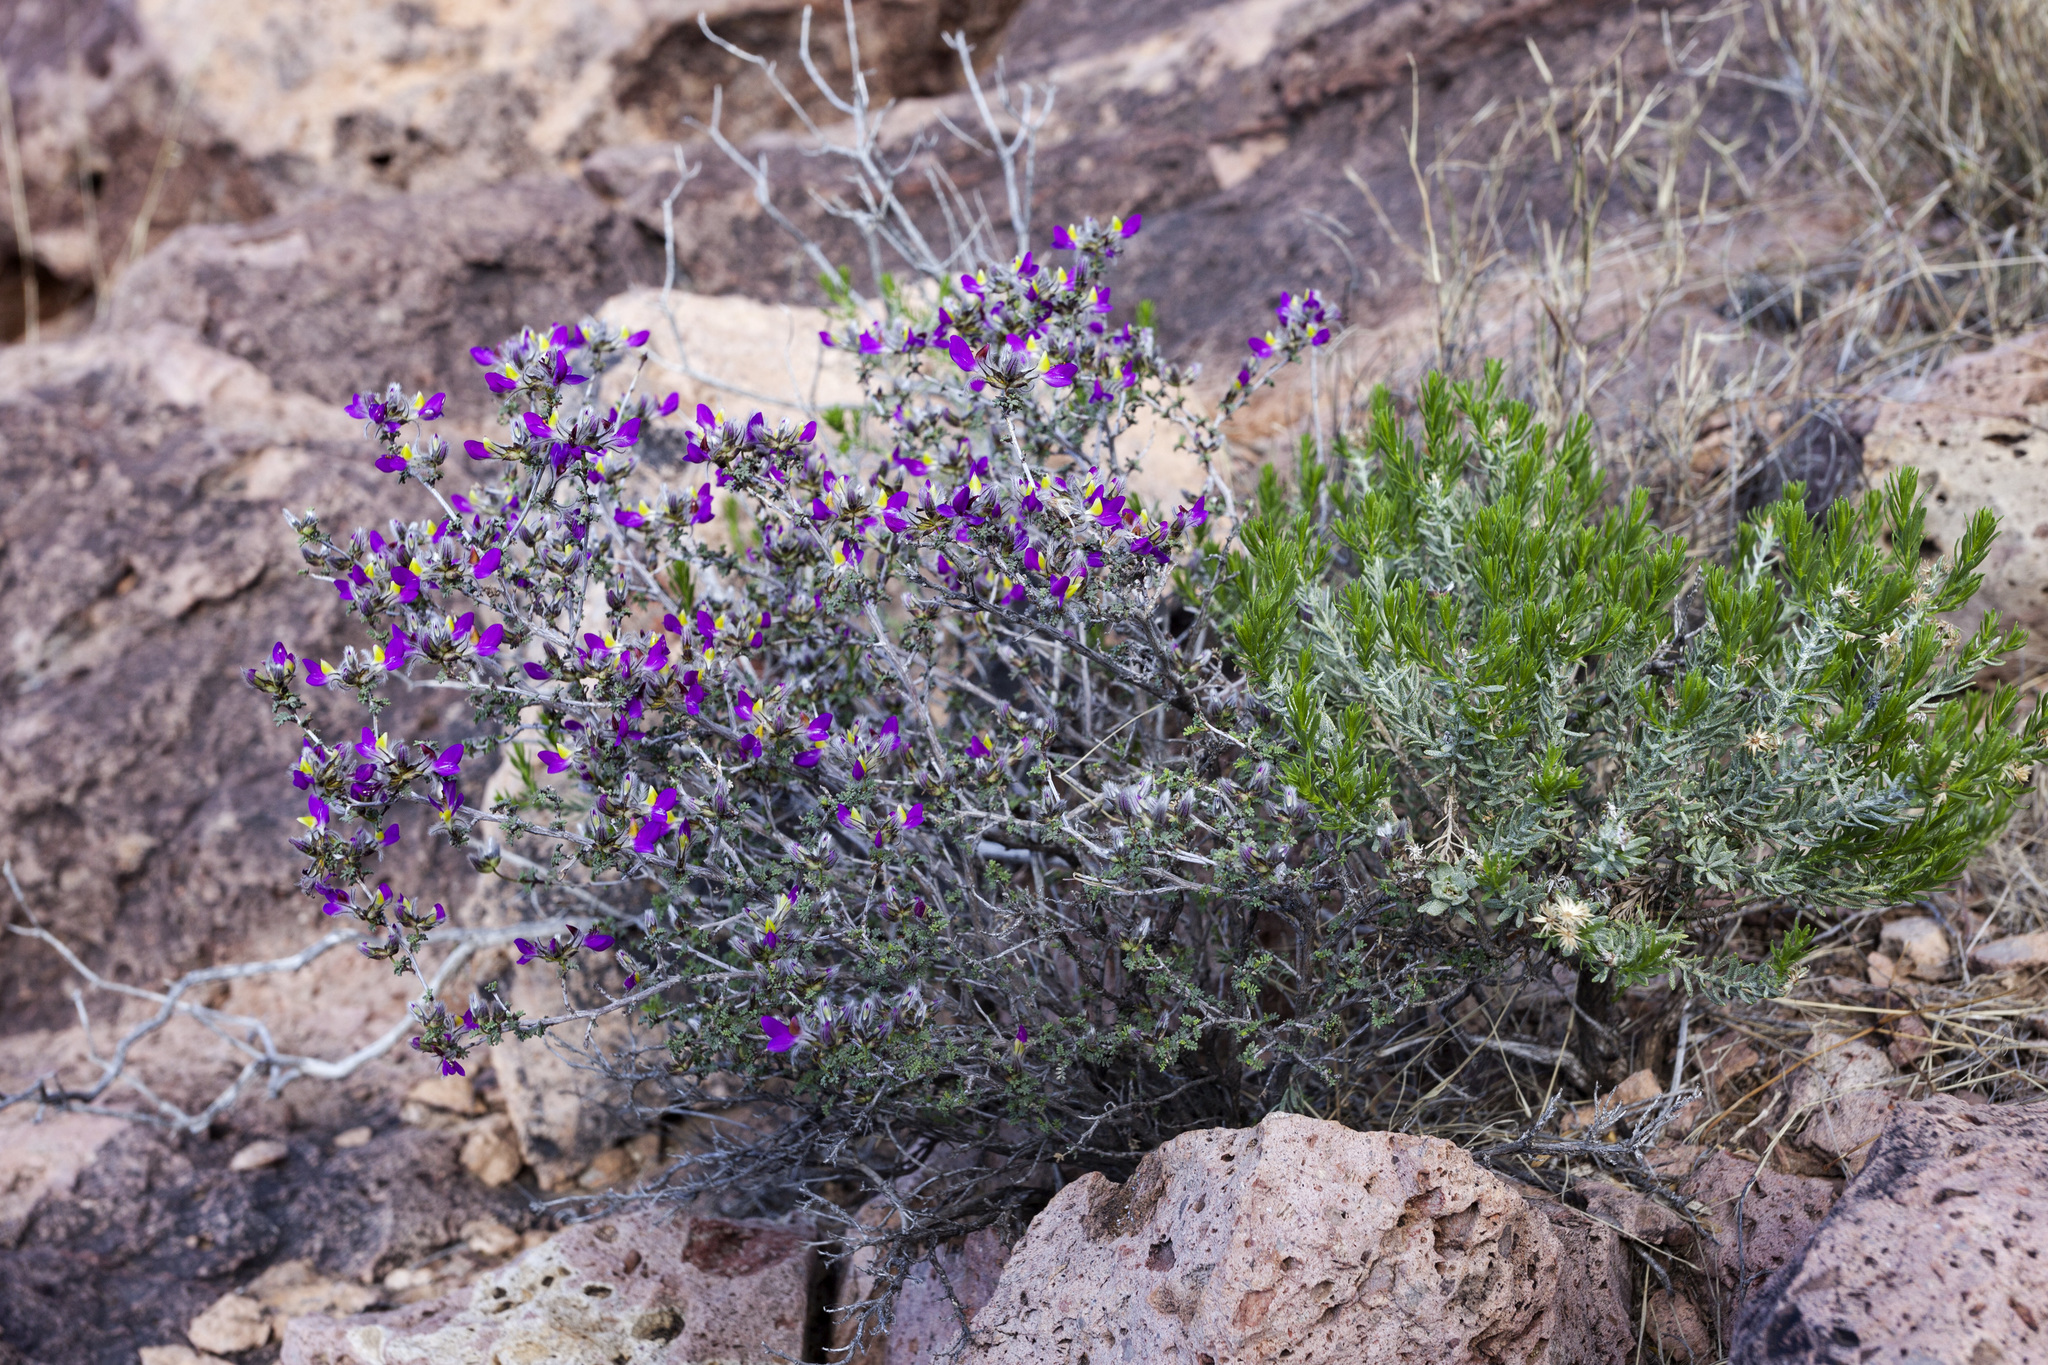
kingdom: Plantae
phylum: Tracheophyta
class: Magnoliopsida
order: Fabales
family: Fabaceae
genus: Dalea
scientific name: Dalea formosa
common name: Feather-plume dalea
